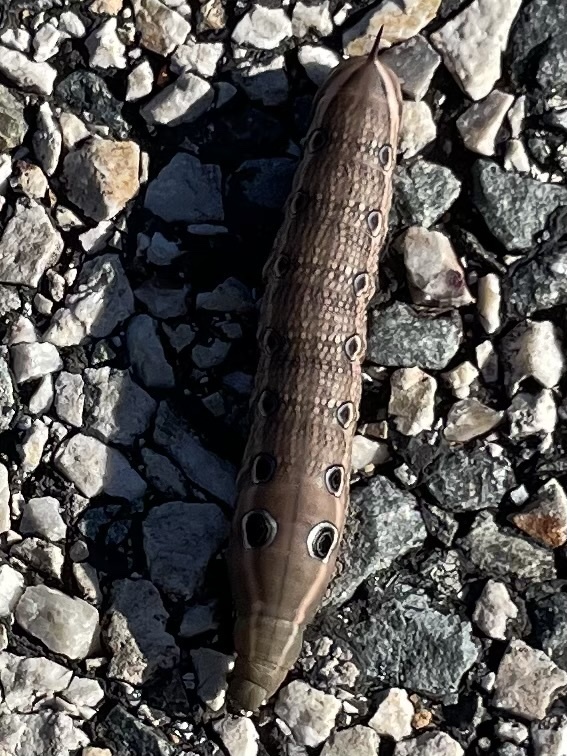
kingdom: Animalia
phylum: Arthropoda
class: Insecta
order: Lepidoptera
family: Sphingidae
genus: Xylophanes
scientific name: Xylophanes tersa
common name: Tersa sphinx
